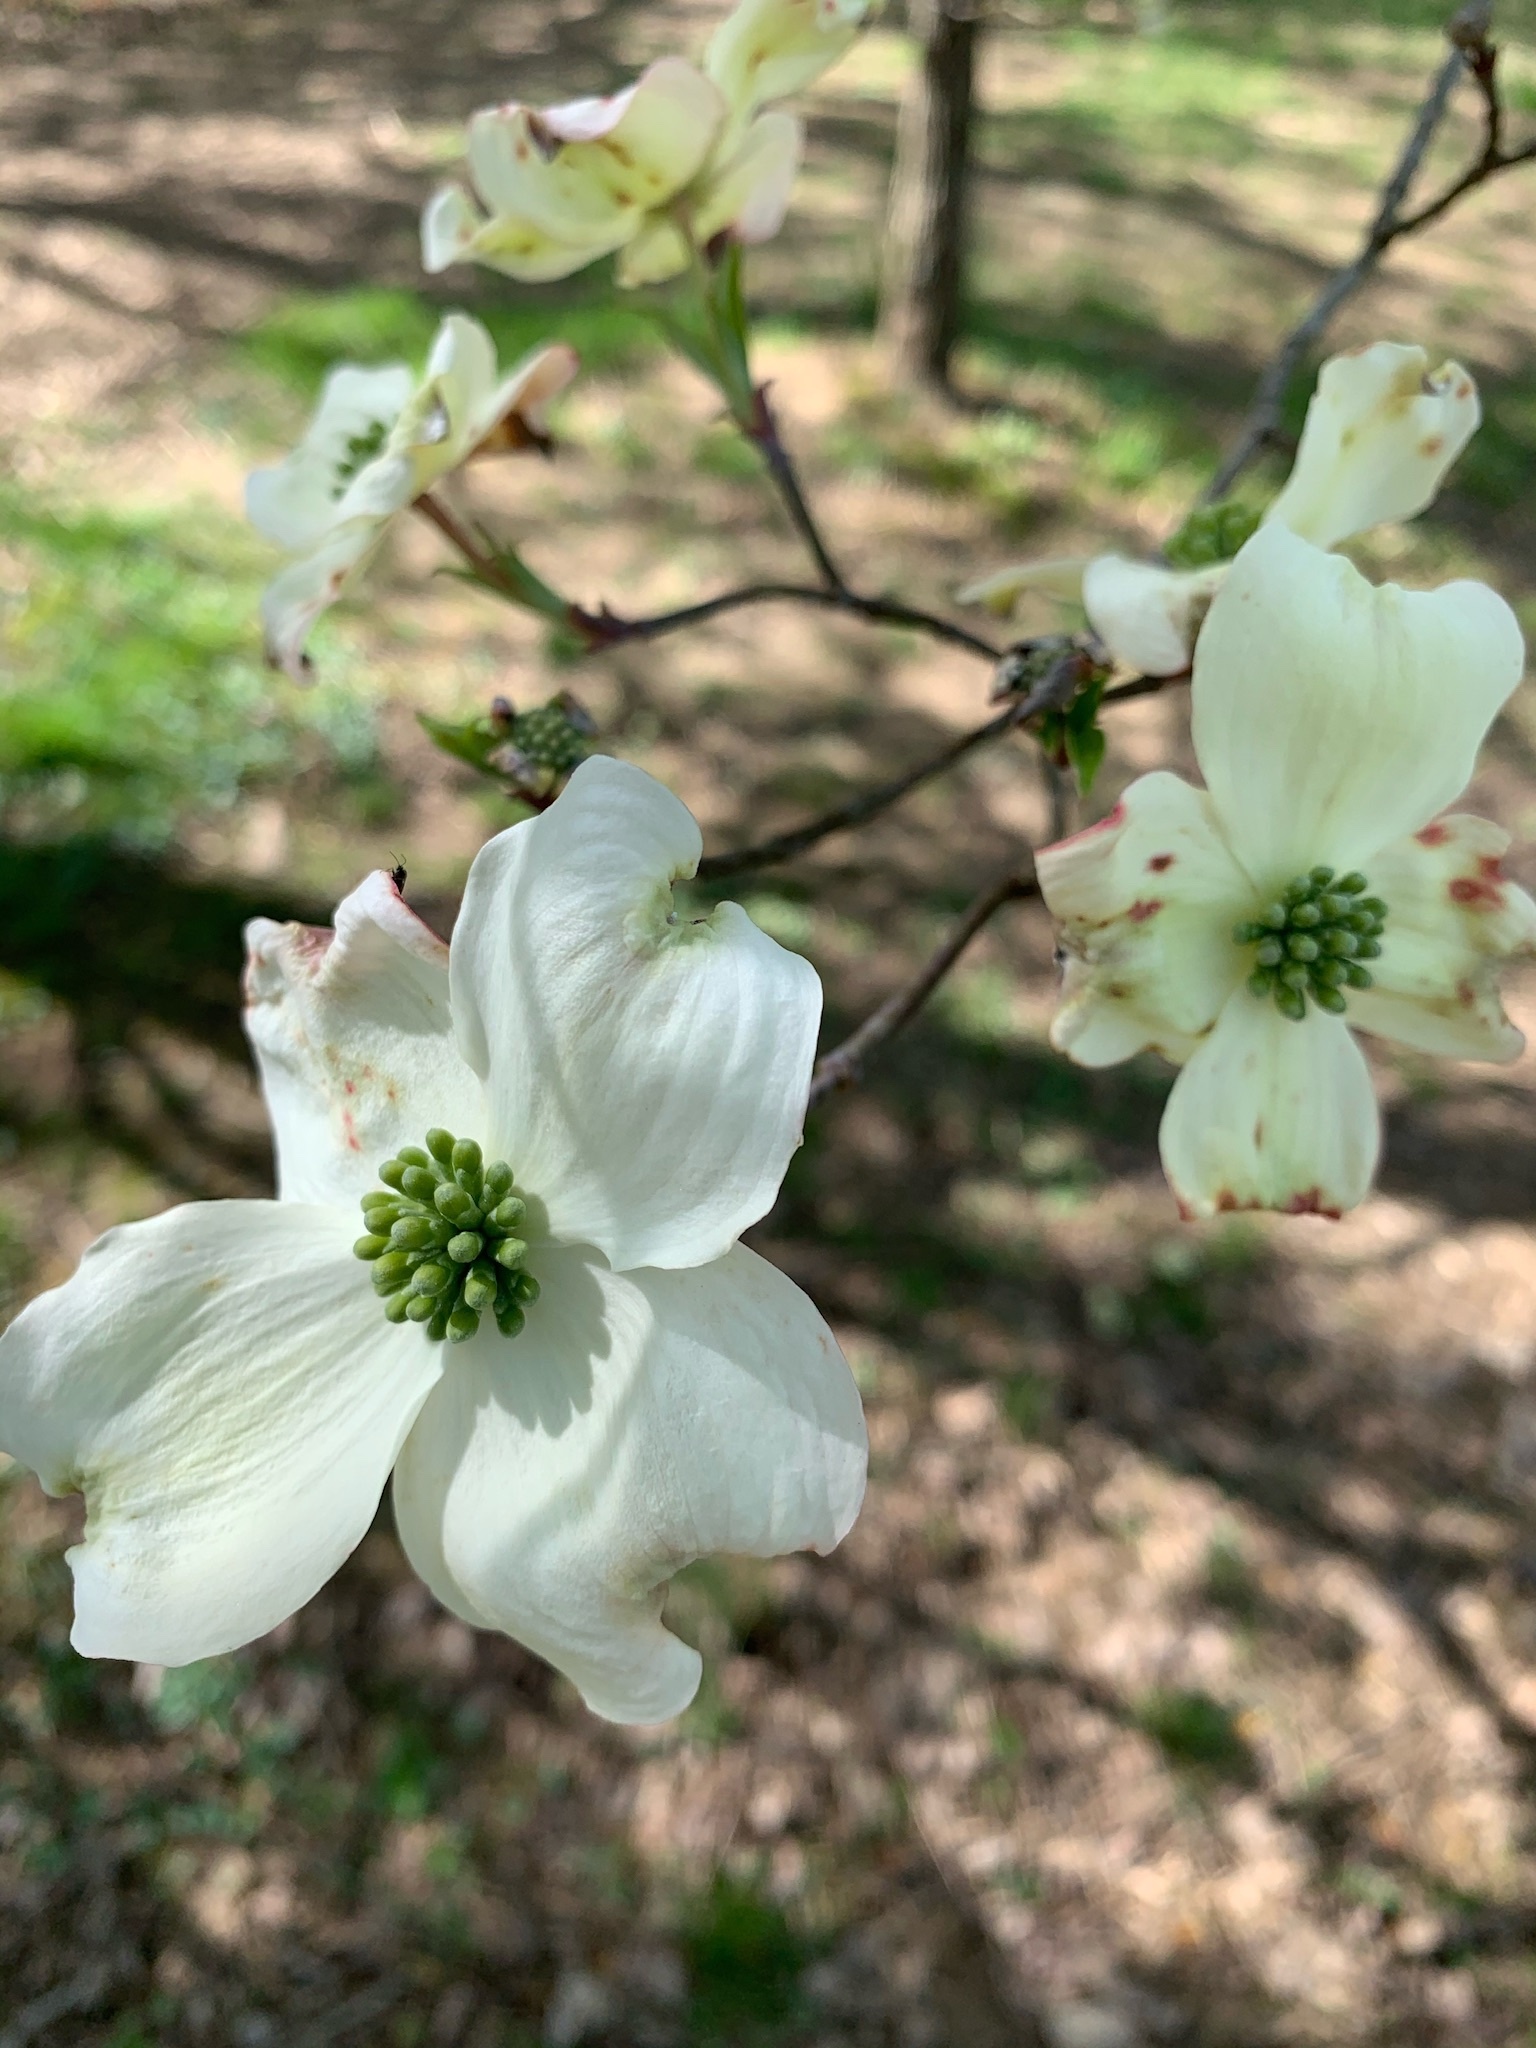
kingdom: Plantae
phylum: Tracheophyta
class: Magnoliopsida
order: Cornales
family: Cornaceae
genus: Cornus
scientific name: Cornus florida
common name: Flowering dogwood
